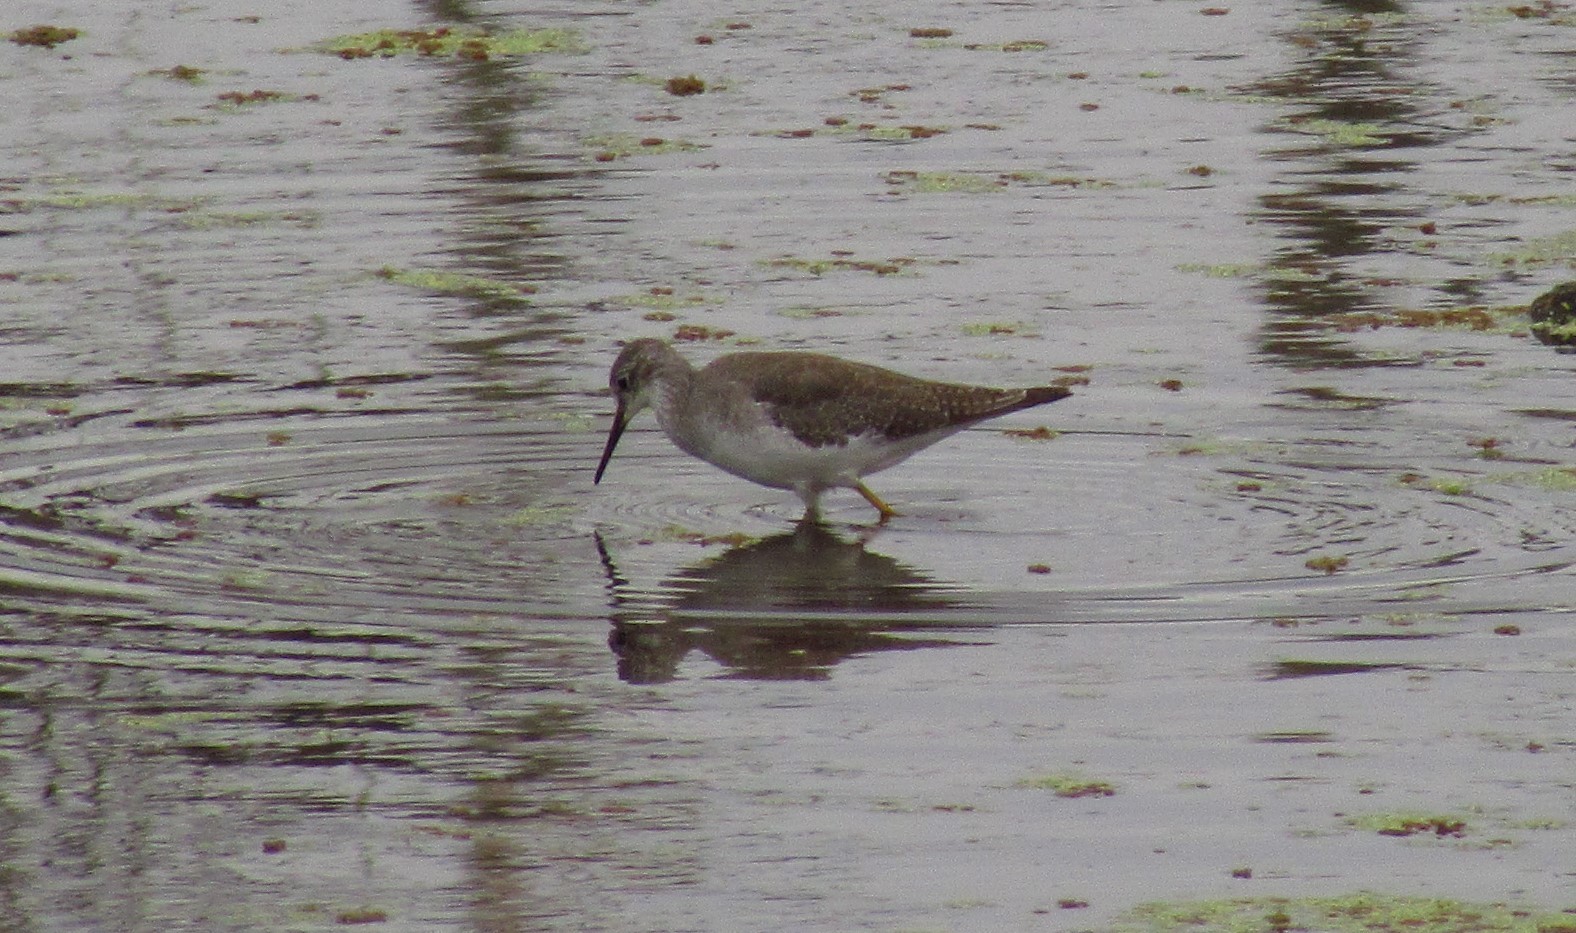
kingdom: Animalia
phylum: Chordata
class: Aves
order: Charadriiformes
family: Scolopacidae
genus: Tringa
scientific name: Tringa flavipes
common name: Lesser yellowlegs
